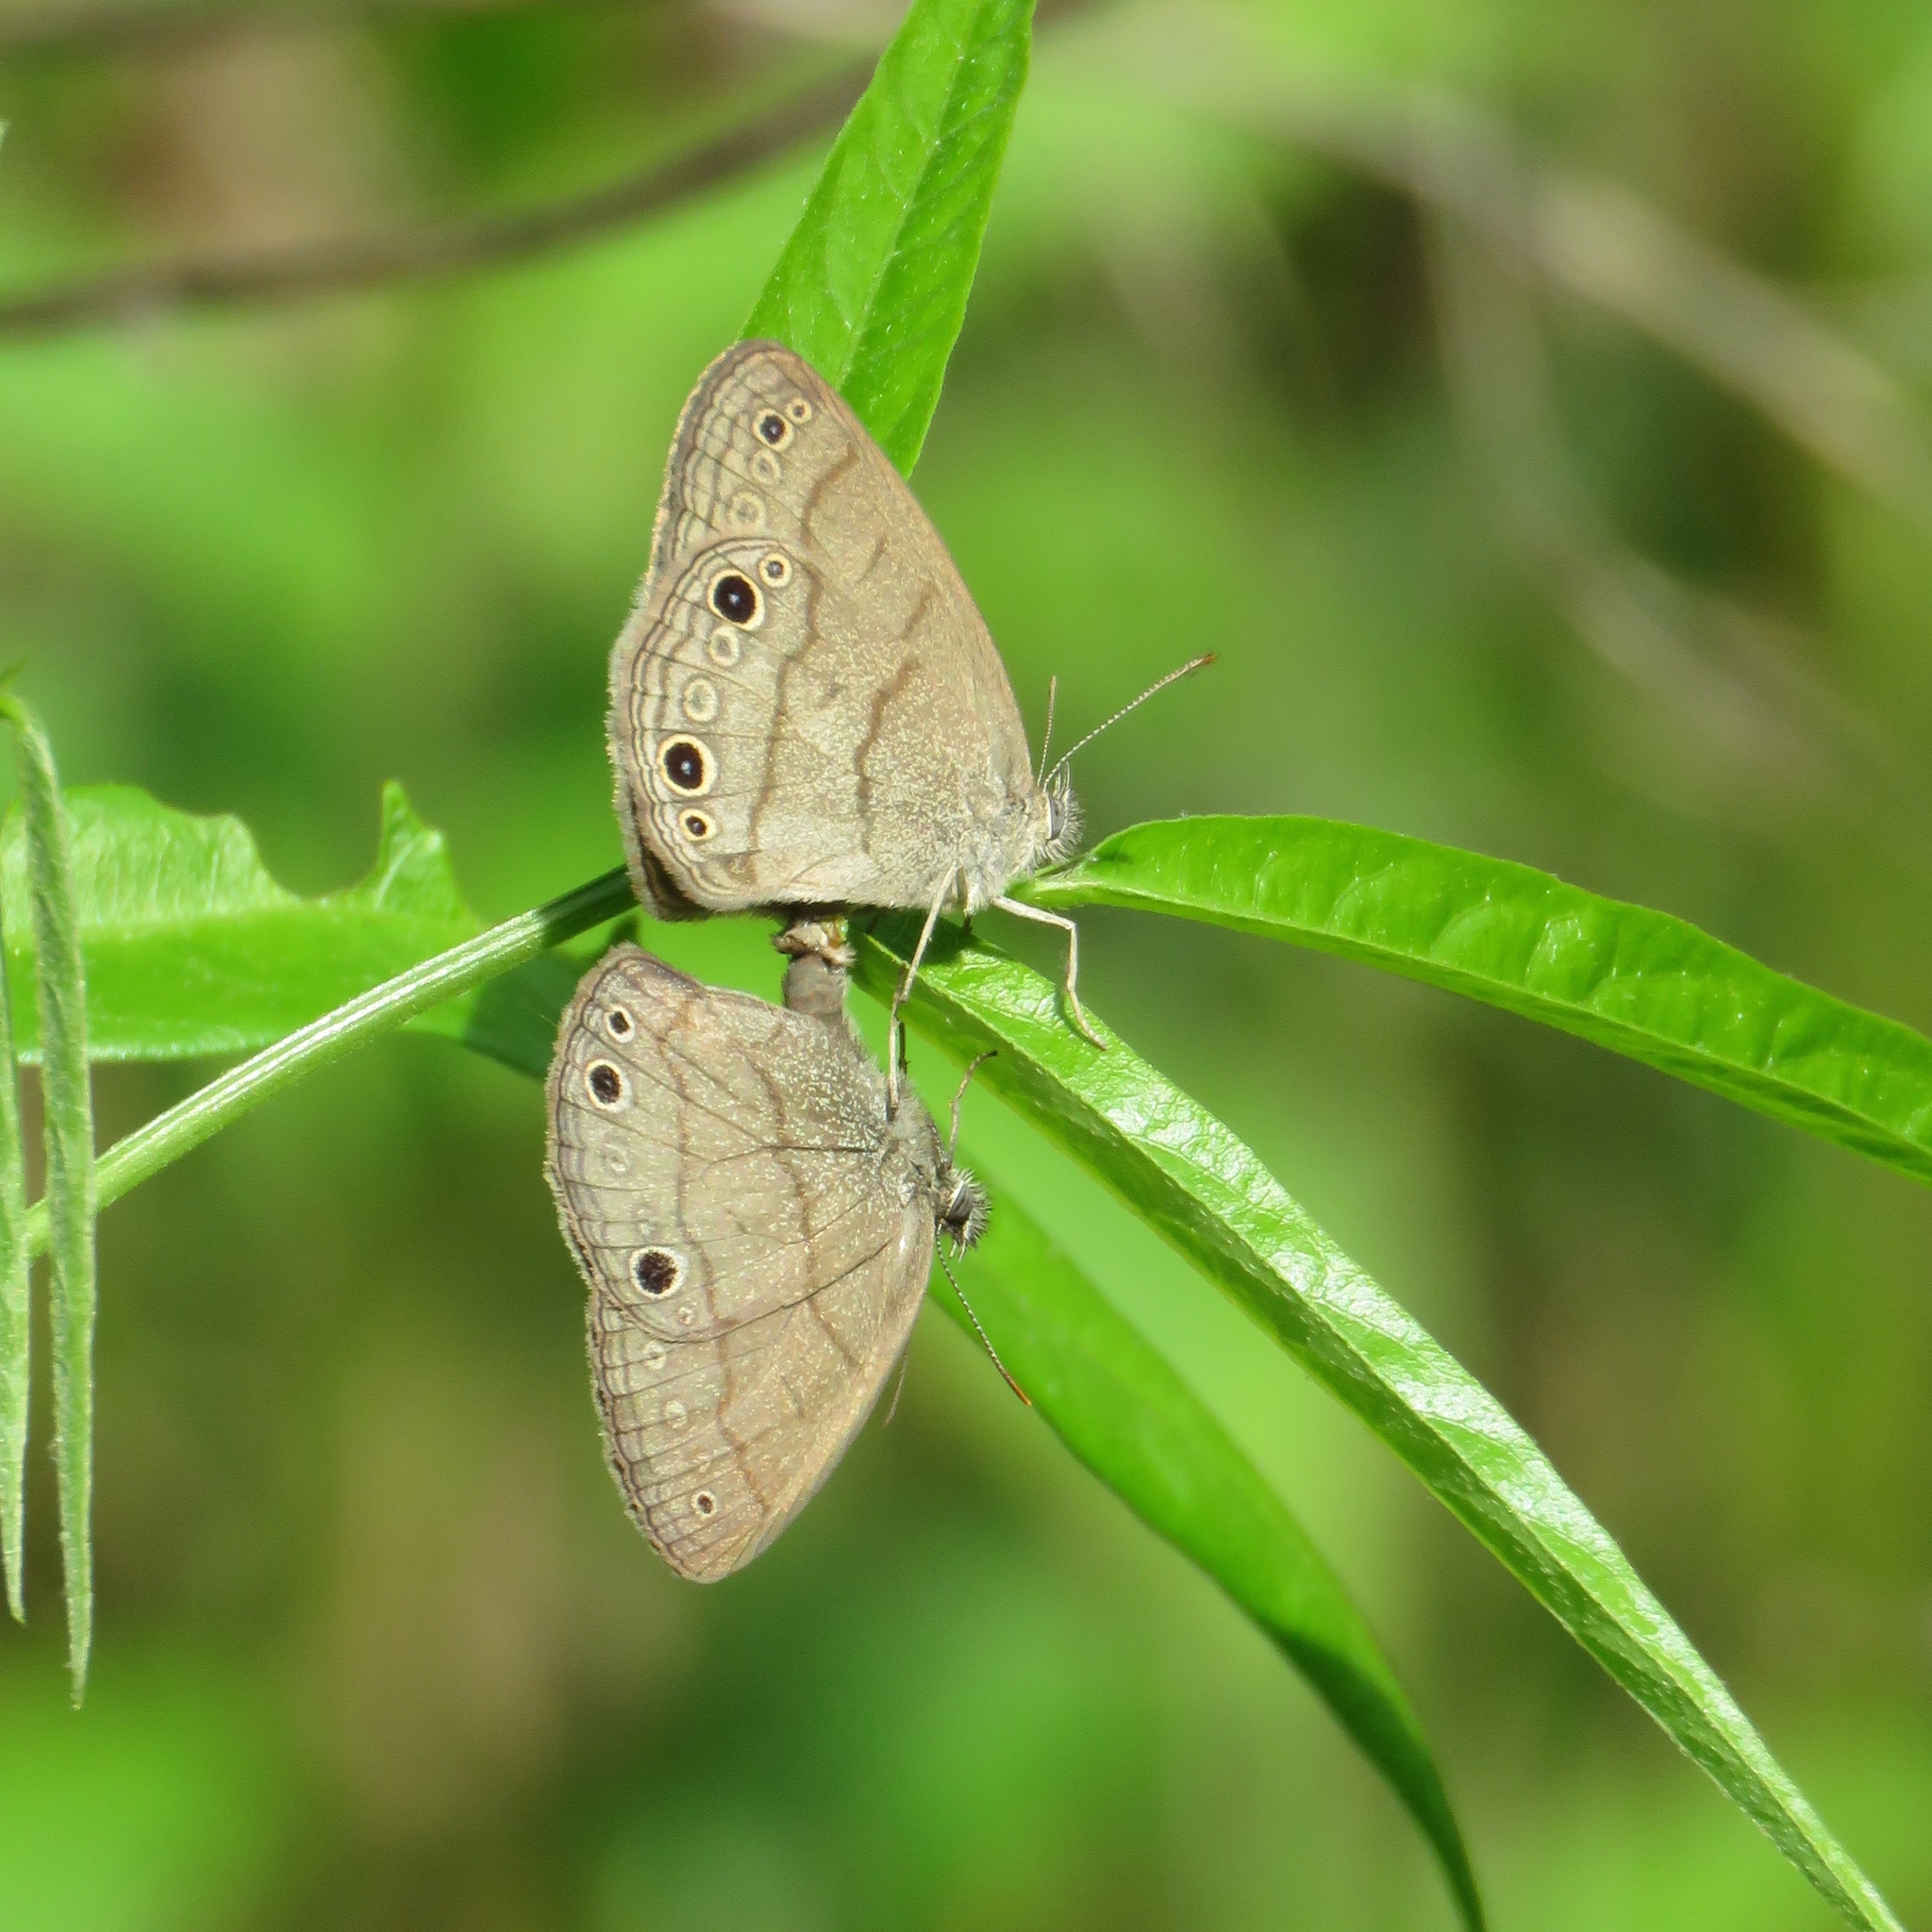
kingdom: Animalia
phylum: Arthropoda
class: Insecta
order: Lepidoptera
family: Nymphalidae
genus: Hermeuptychia
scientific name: Hermeuptychia hermes
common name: Hermes satyr
